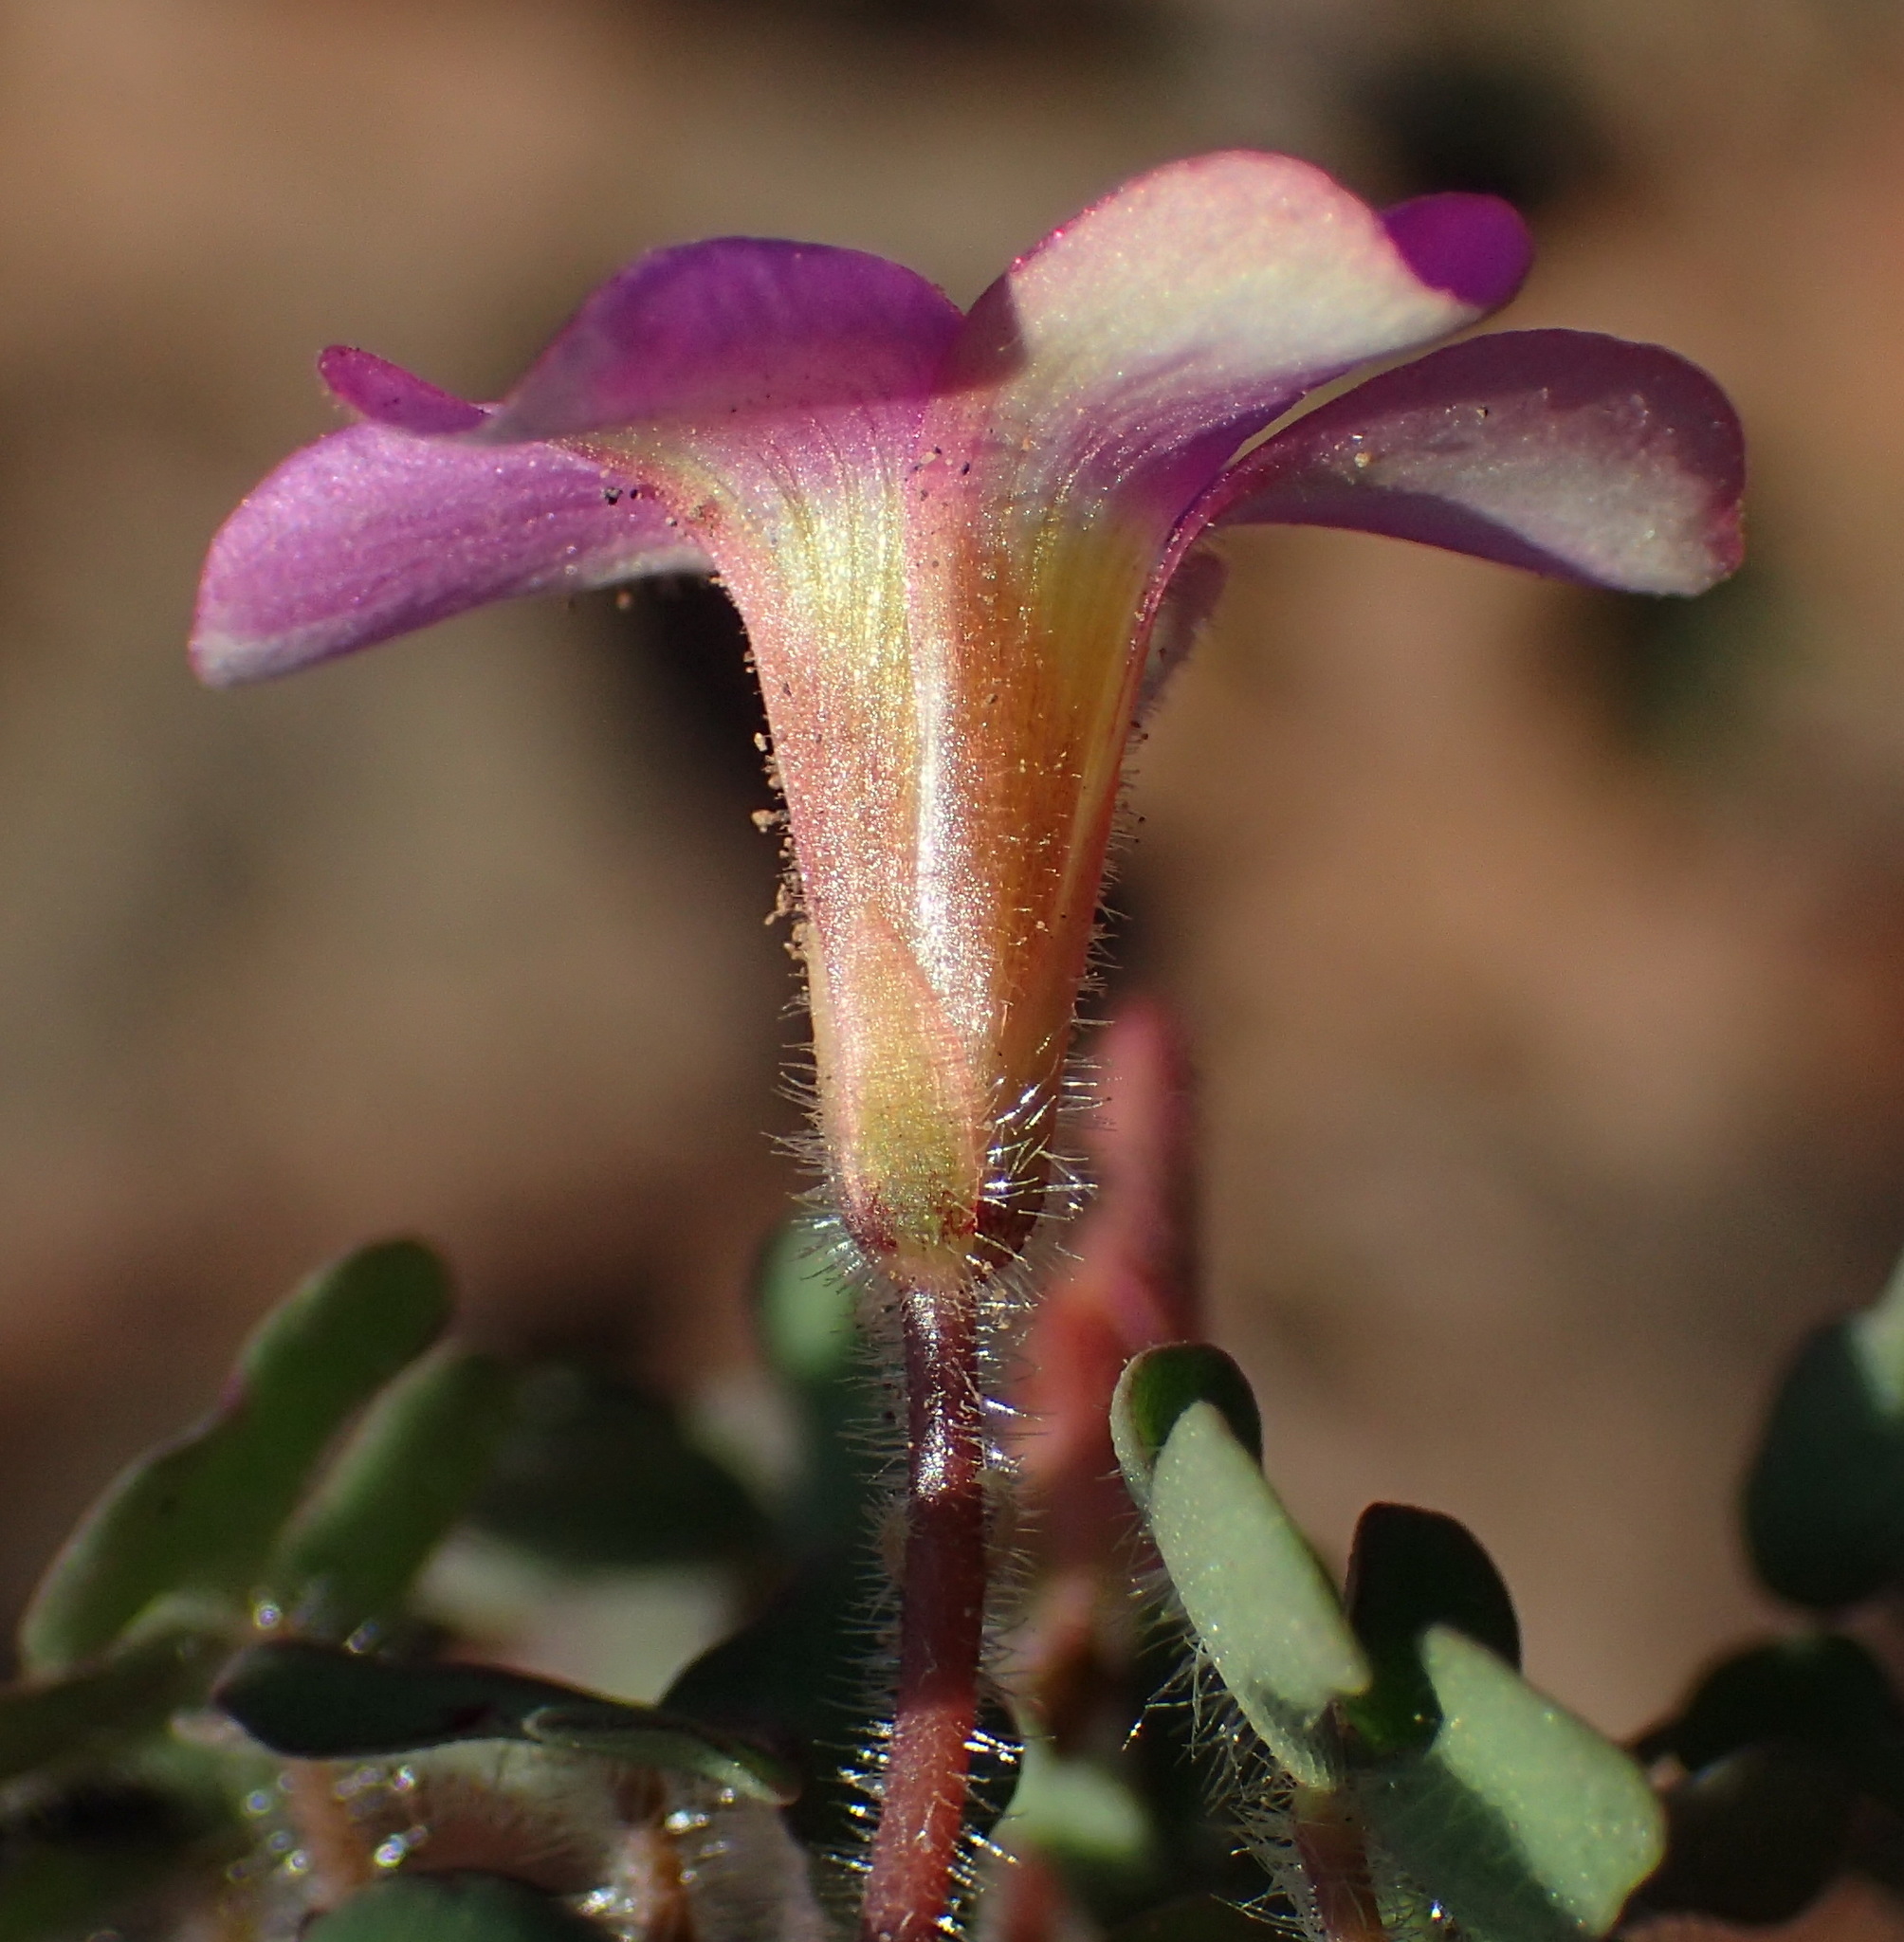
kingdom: Plantae
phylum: Tracheophyta
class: Magnoliopsida
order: Oxalidales
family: Oxalidaceae
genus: Oxalis
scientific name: Oxalis attaquana
